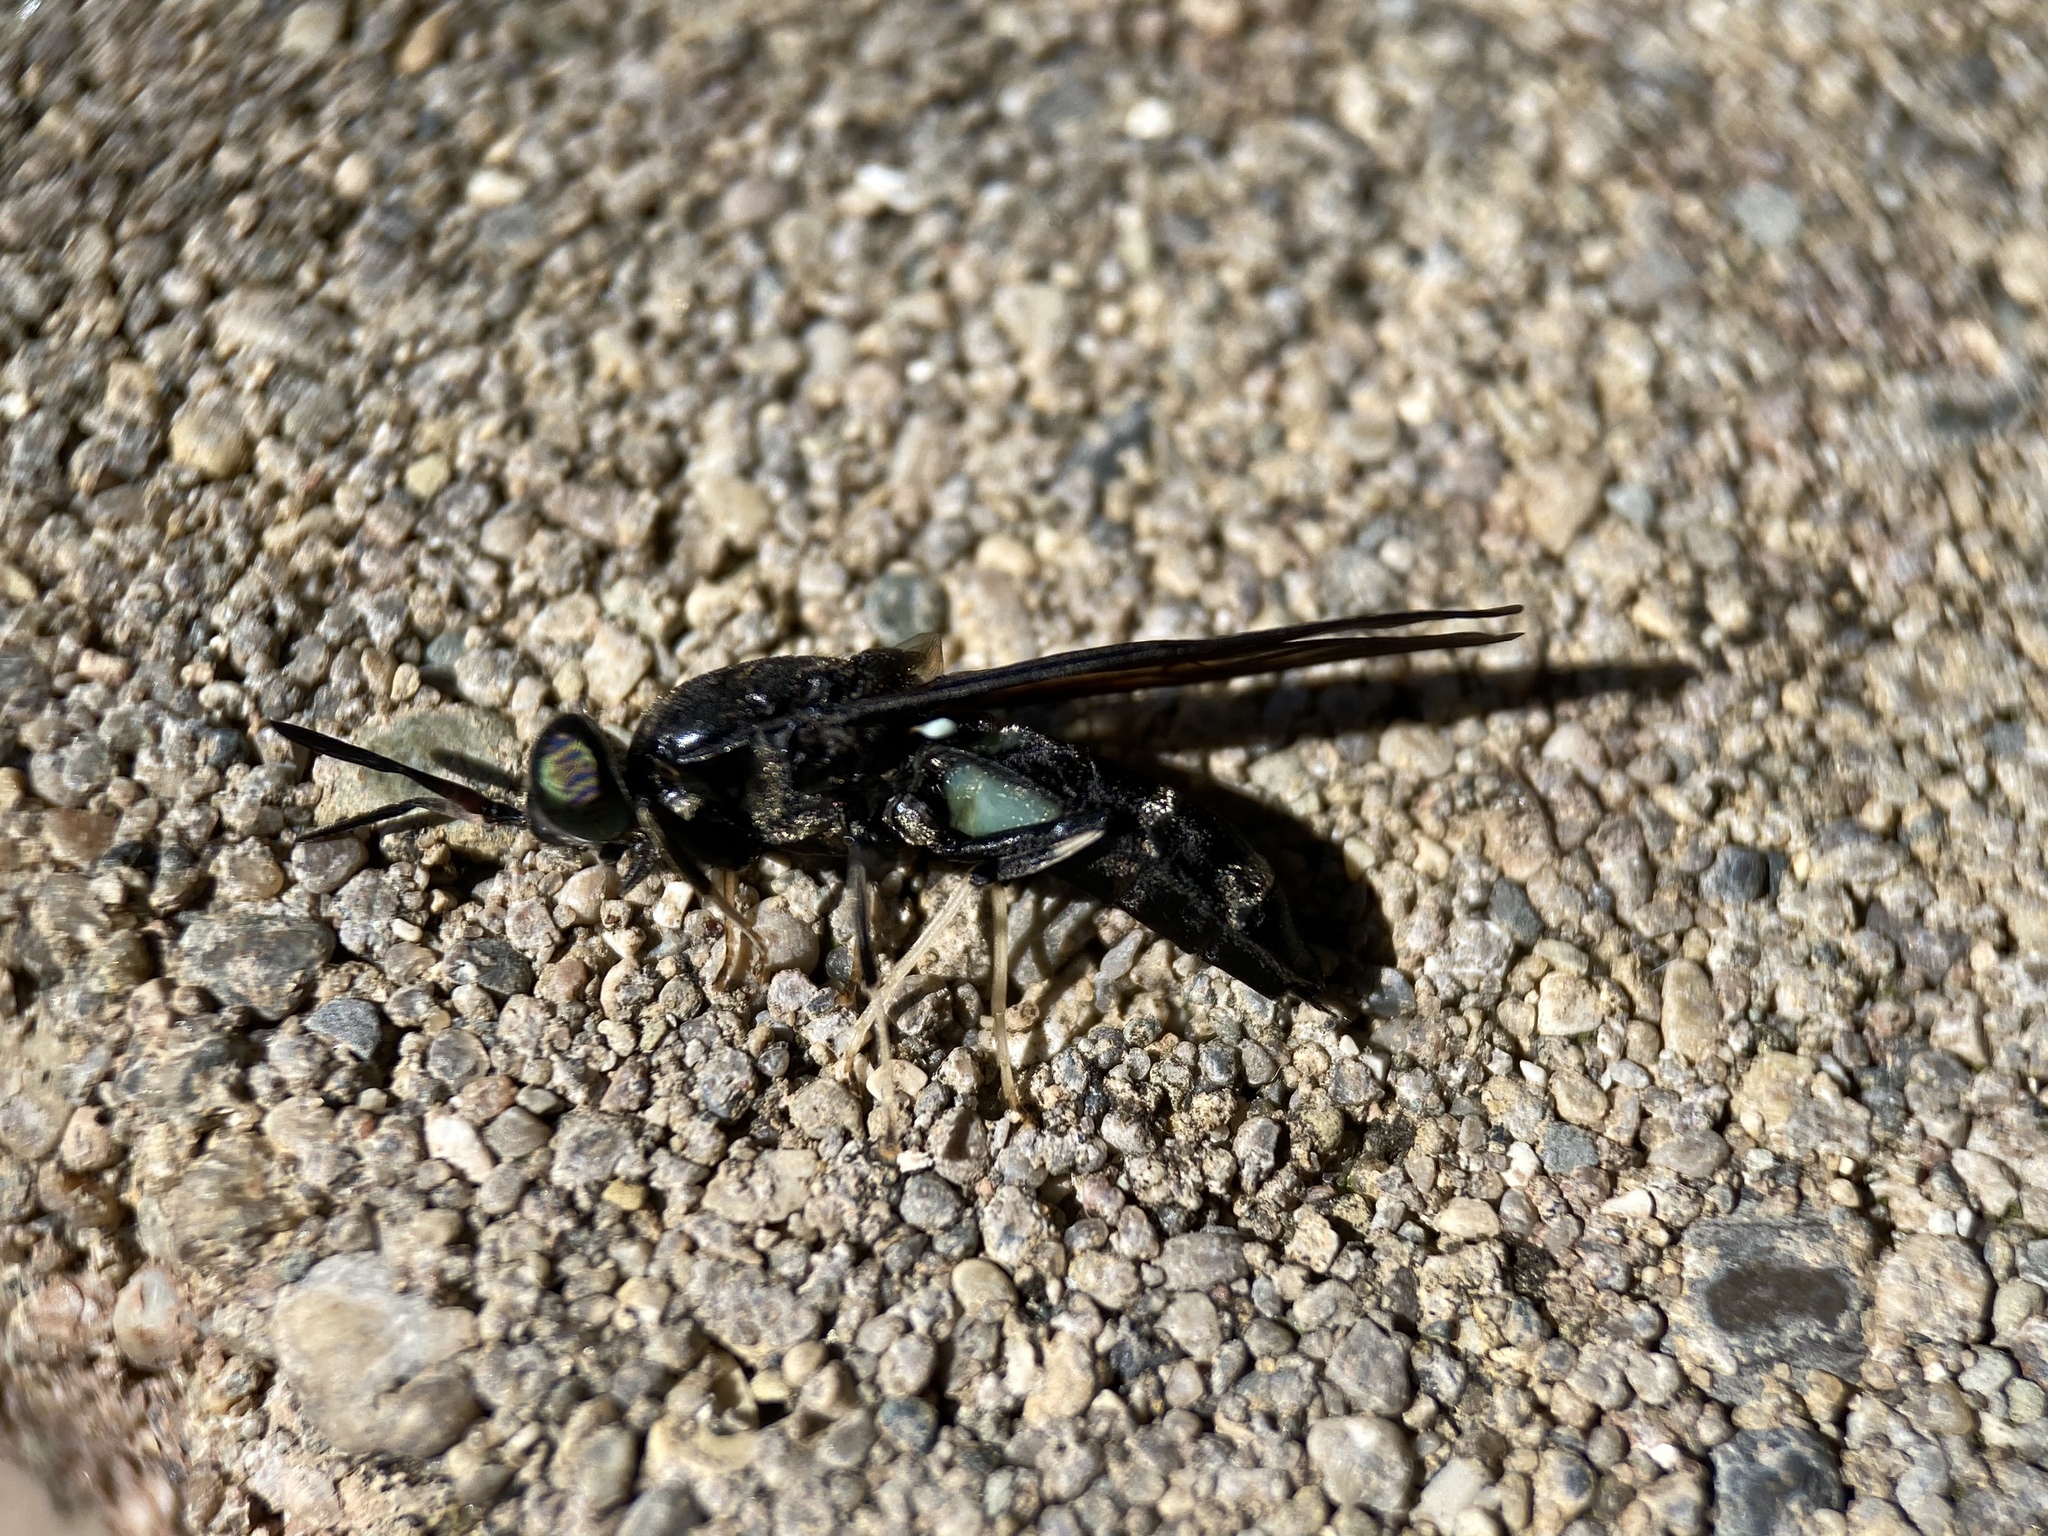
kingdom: Animalia
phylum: Arthropoda
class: Insecta
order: Diptera
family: Stratiomyidae
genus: Hermetia
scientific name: Hermetia illucens
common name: Black soldier fly
